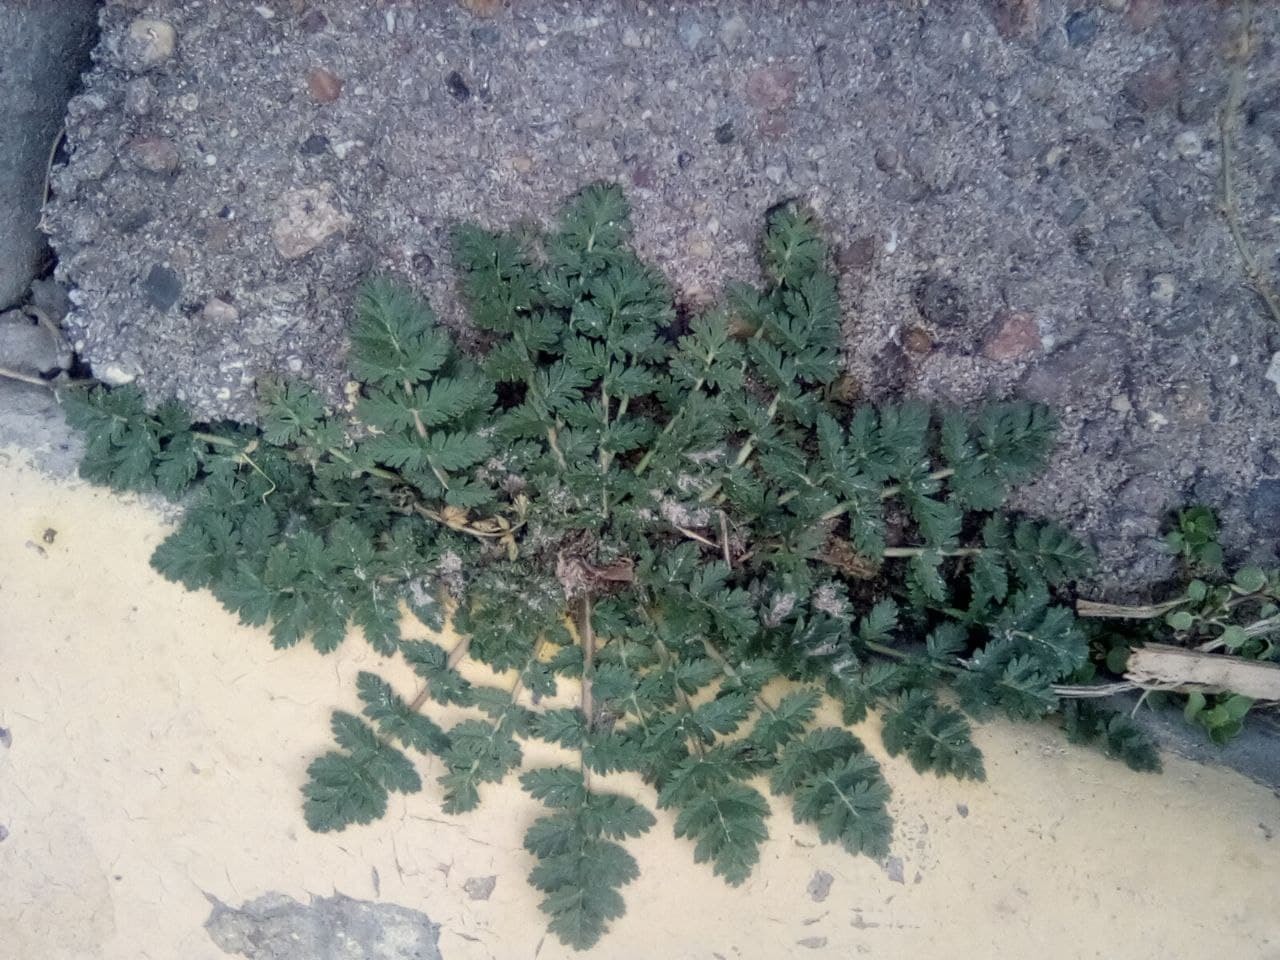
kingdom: Plantae
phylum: Tracheophyta
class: Magnoliopsida
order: Geraniales
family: Geraniaceae
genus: Erodium
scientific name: Erodium cicutarium
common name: Common stork's-bill
